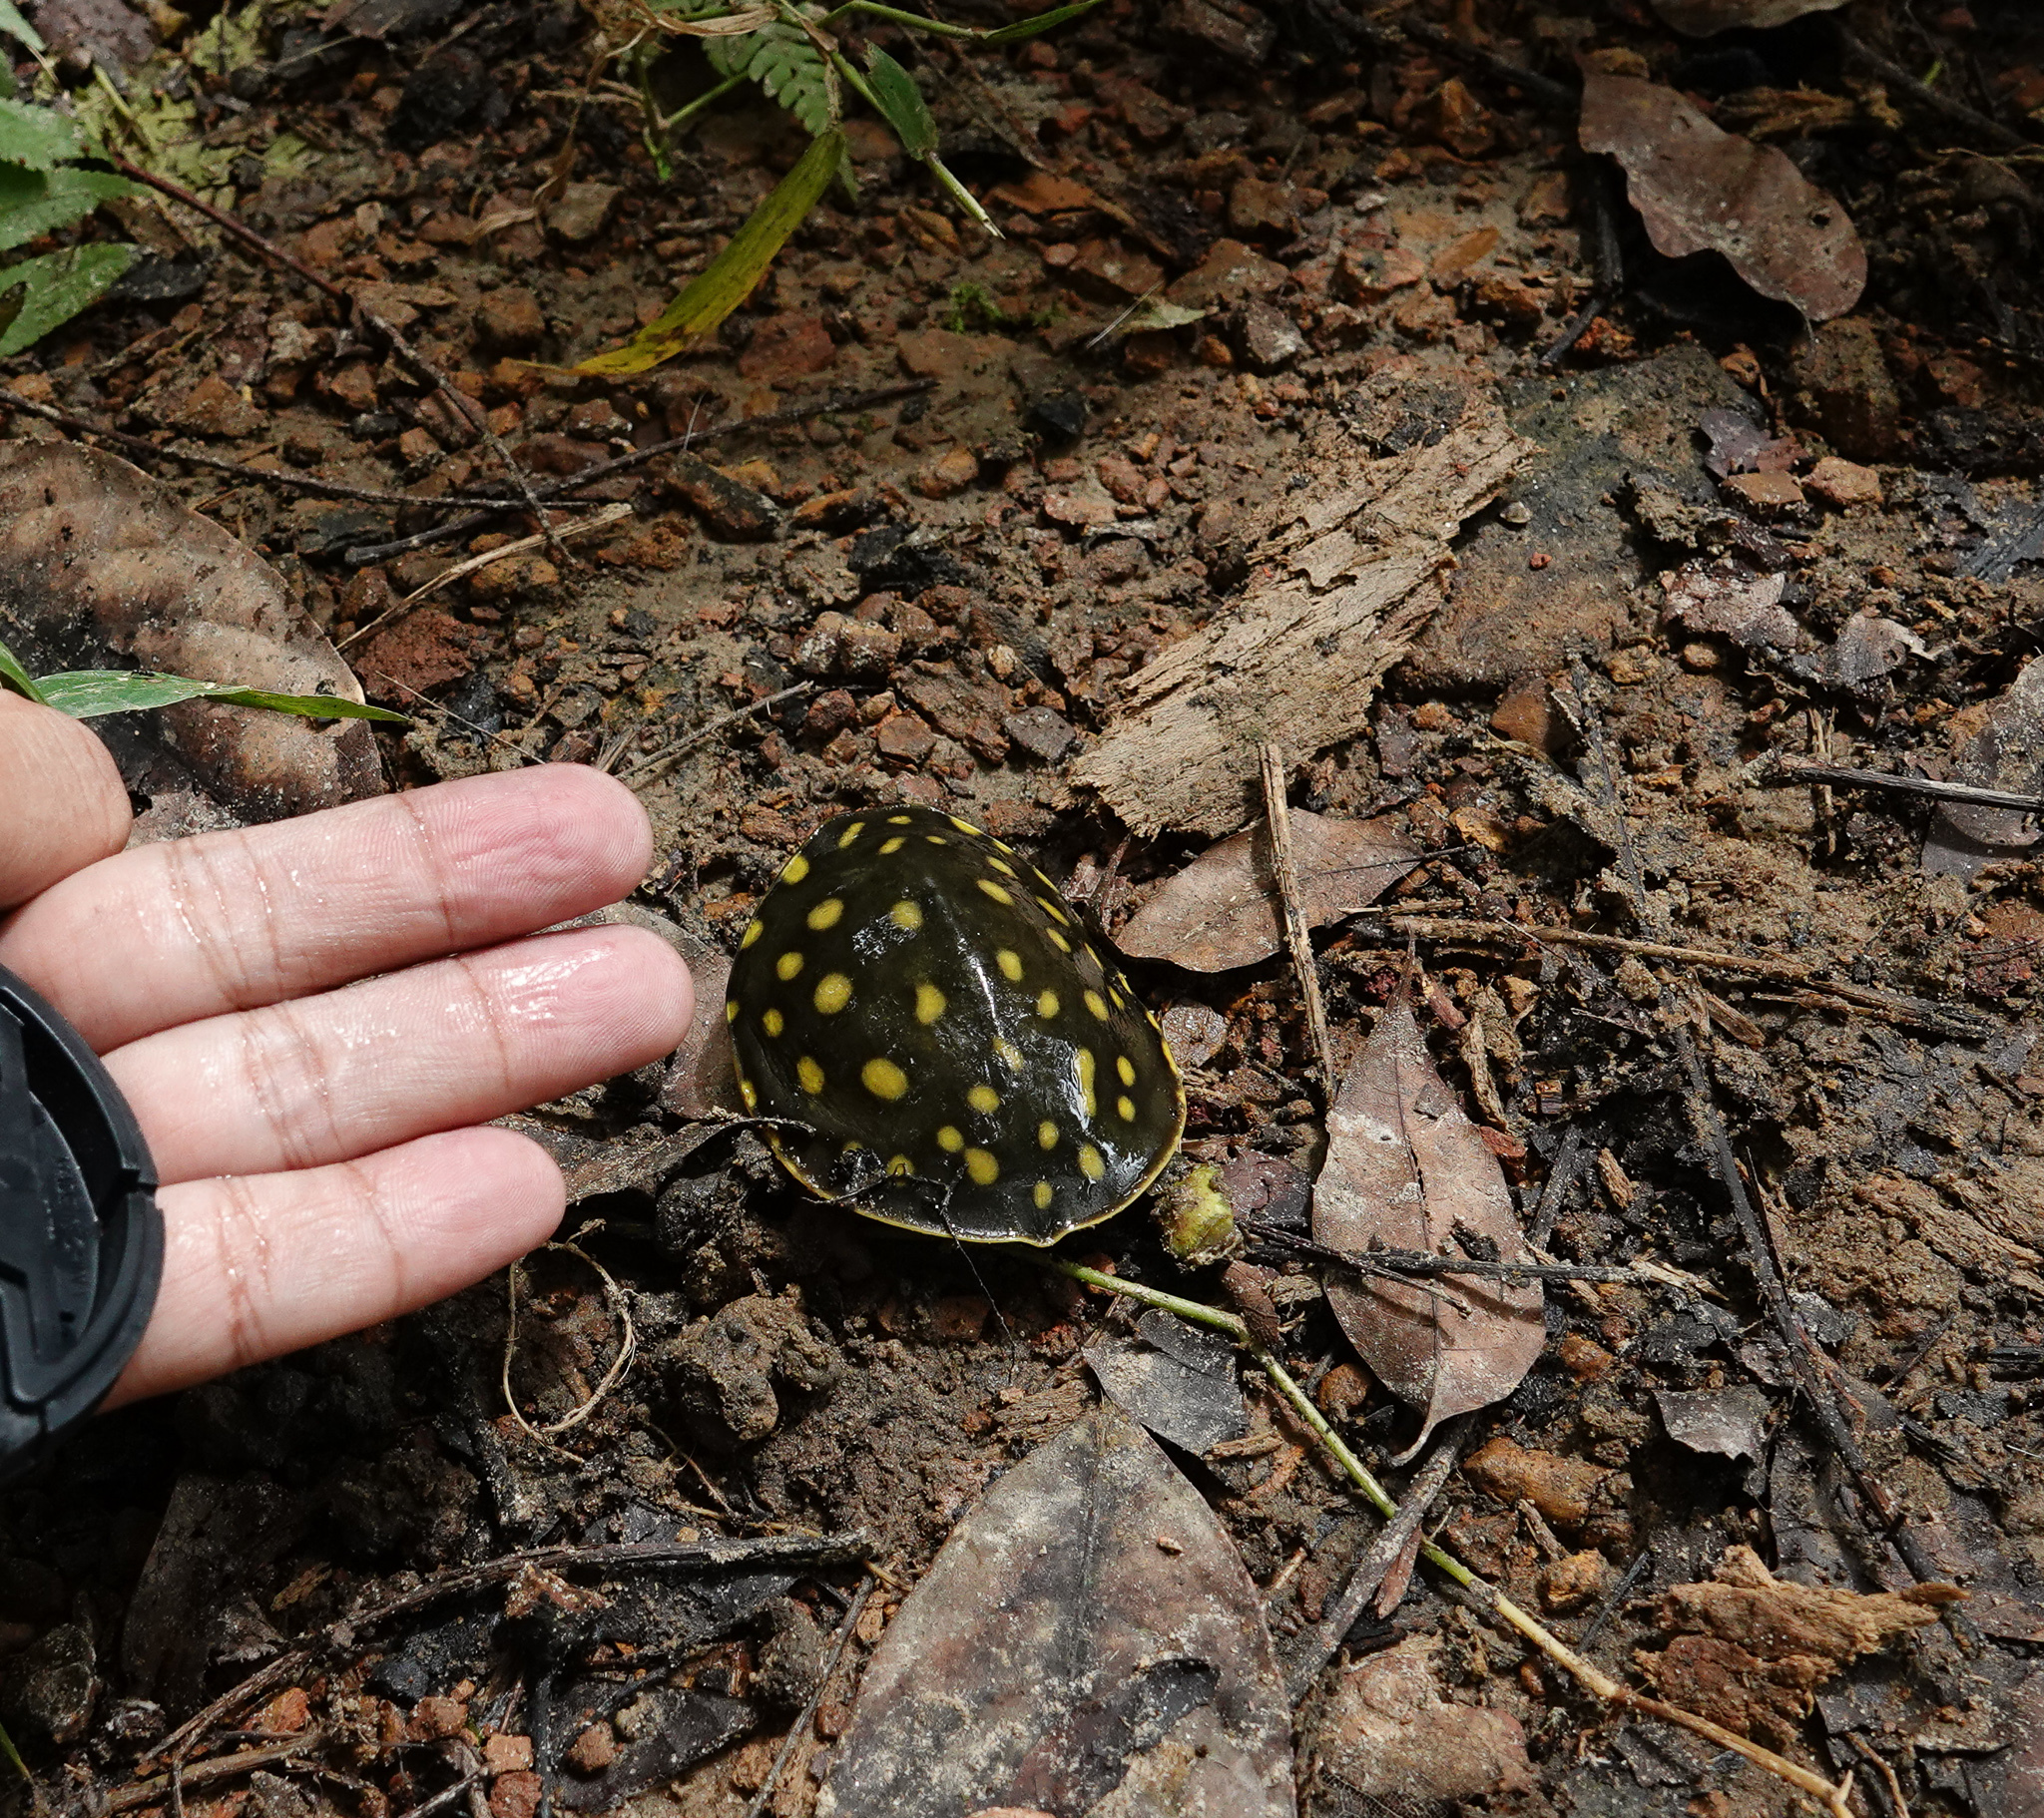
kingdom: Animalia
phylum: Chordata
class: Testudines
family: Trionychidae
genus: Lissemys
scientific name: Lissemys punctata
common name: Indian flap-shelled turtle
